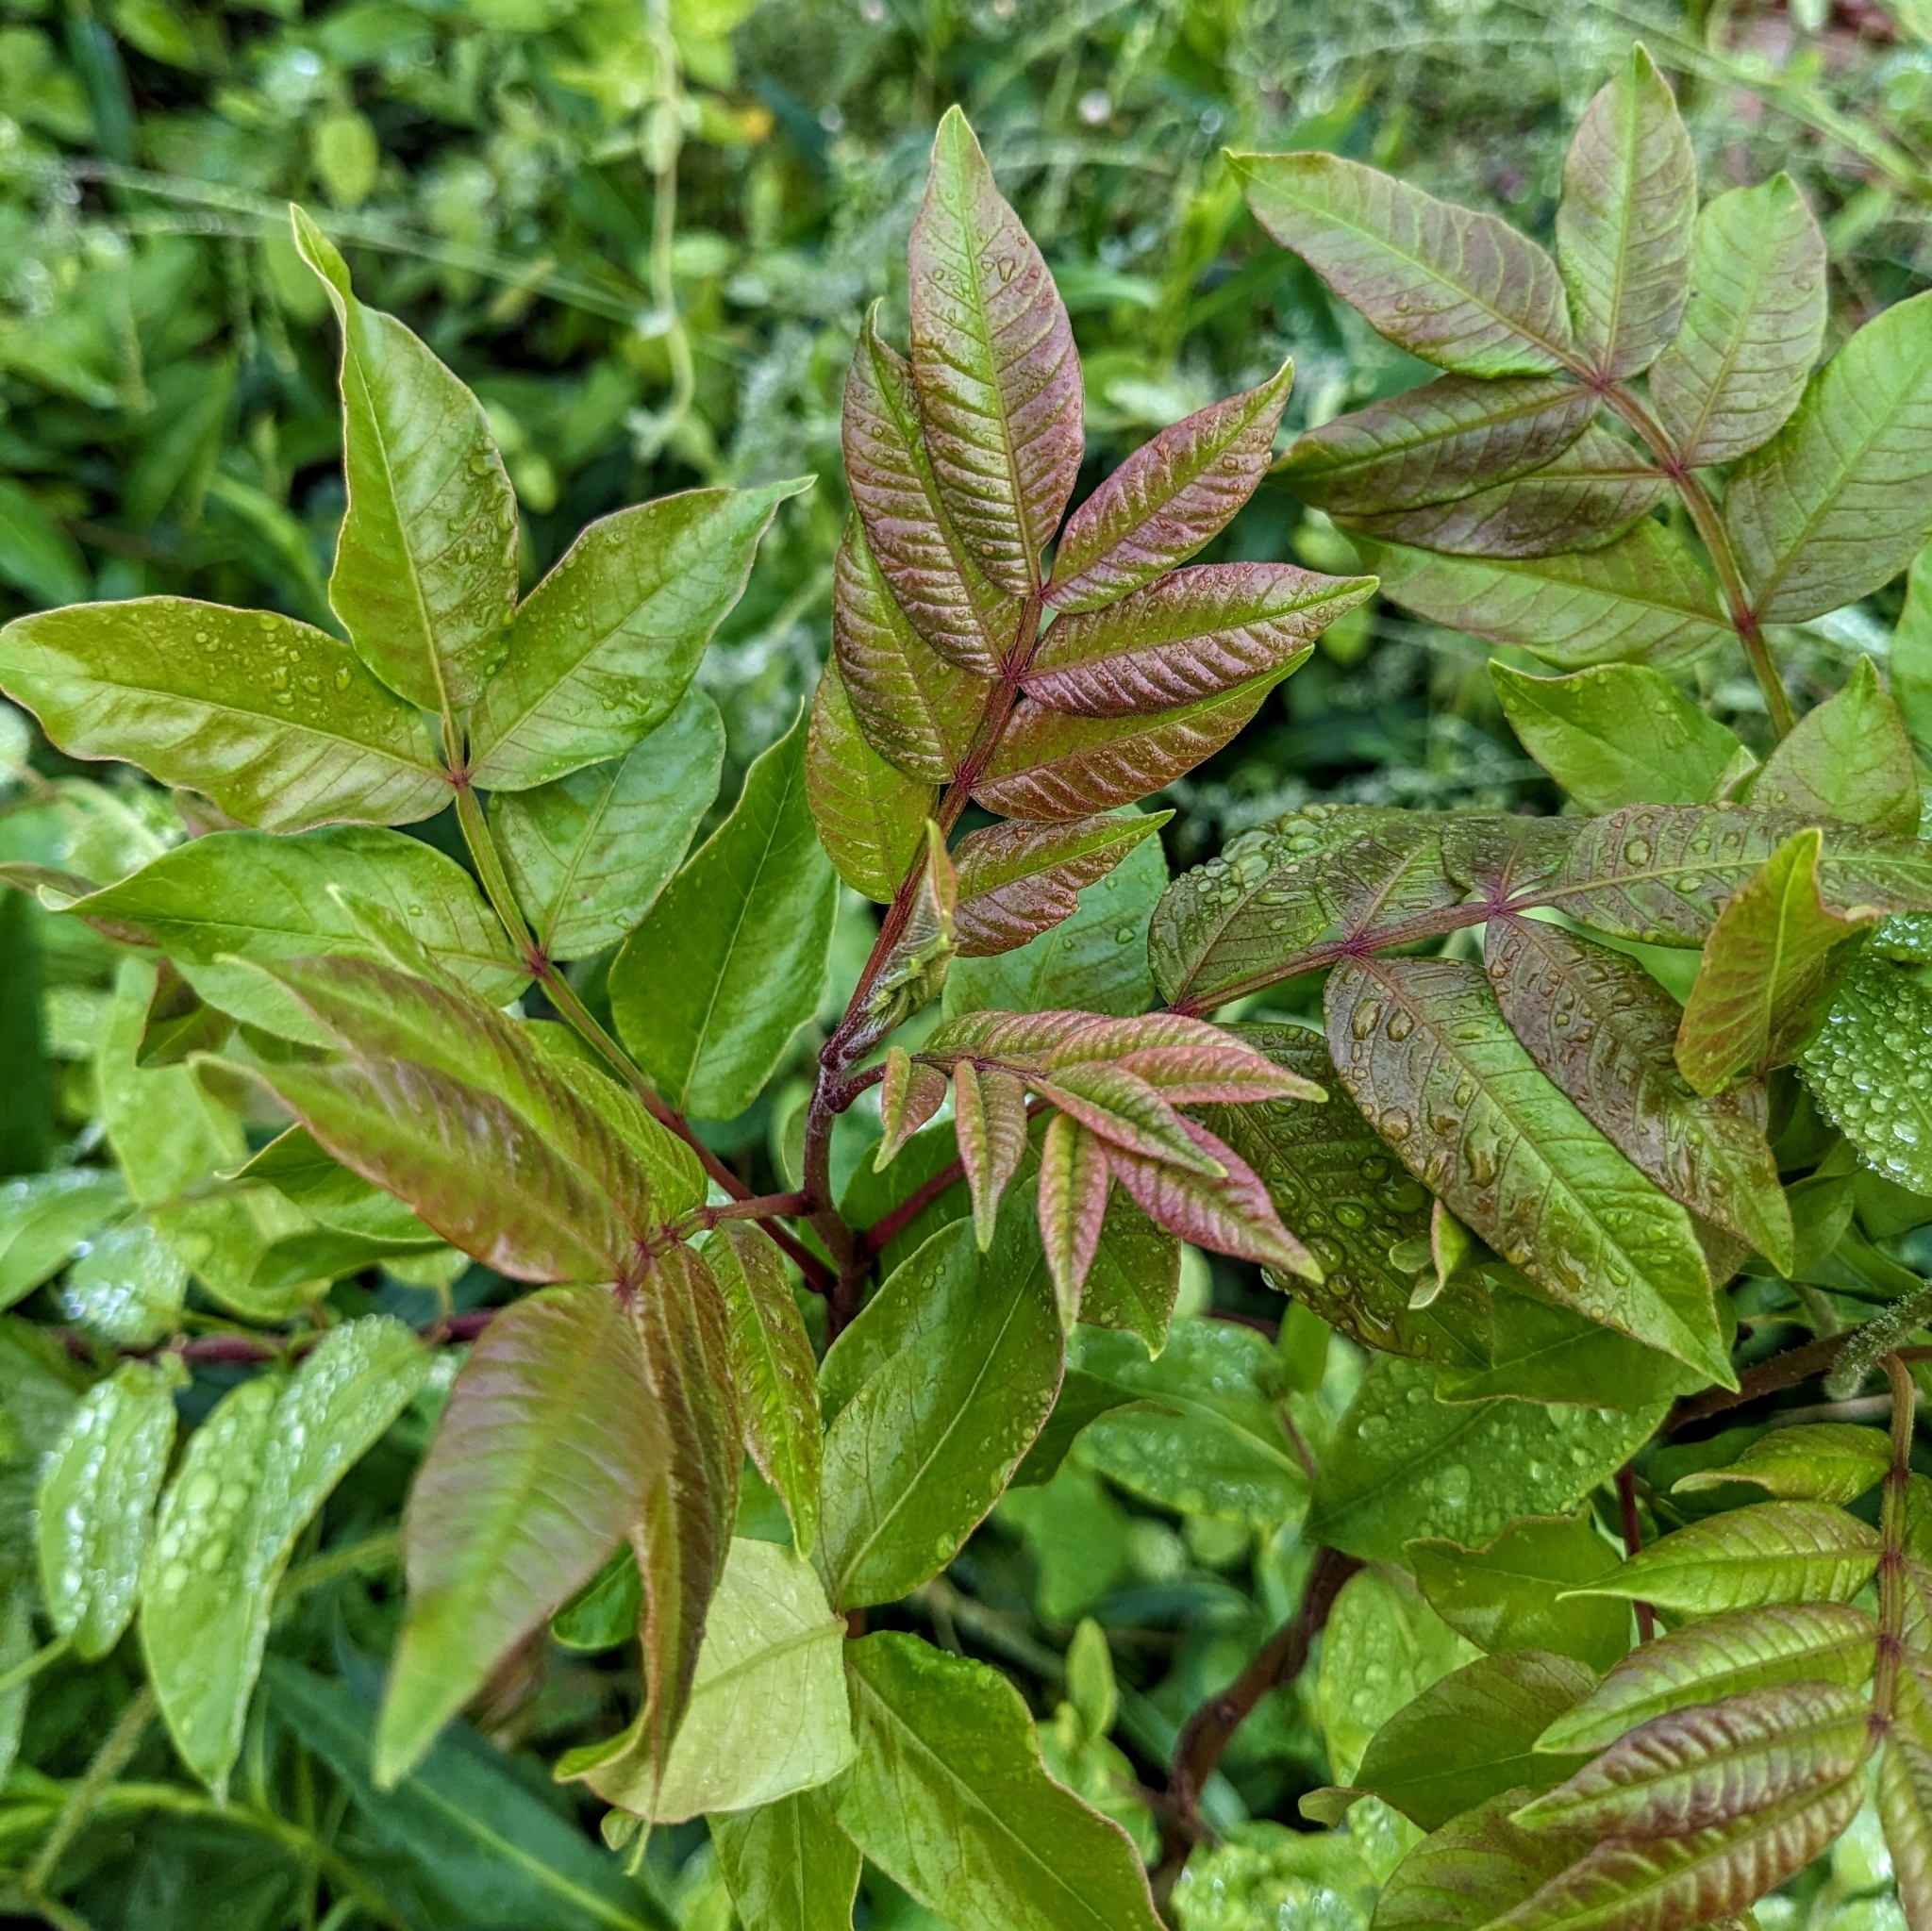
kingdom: Plantae
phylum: Tracheophyta
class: Magnoliopsida
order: Sapindales
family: Anacardiaceae
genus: Rhus
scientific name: Rhus copallina
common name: Shining sumac
